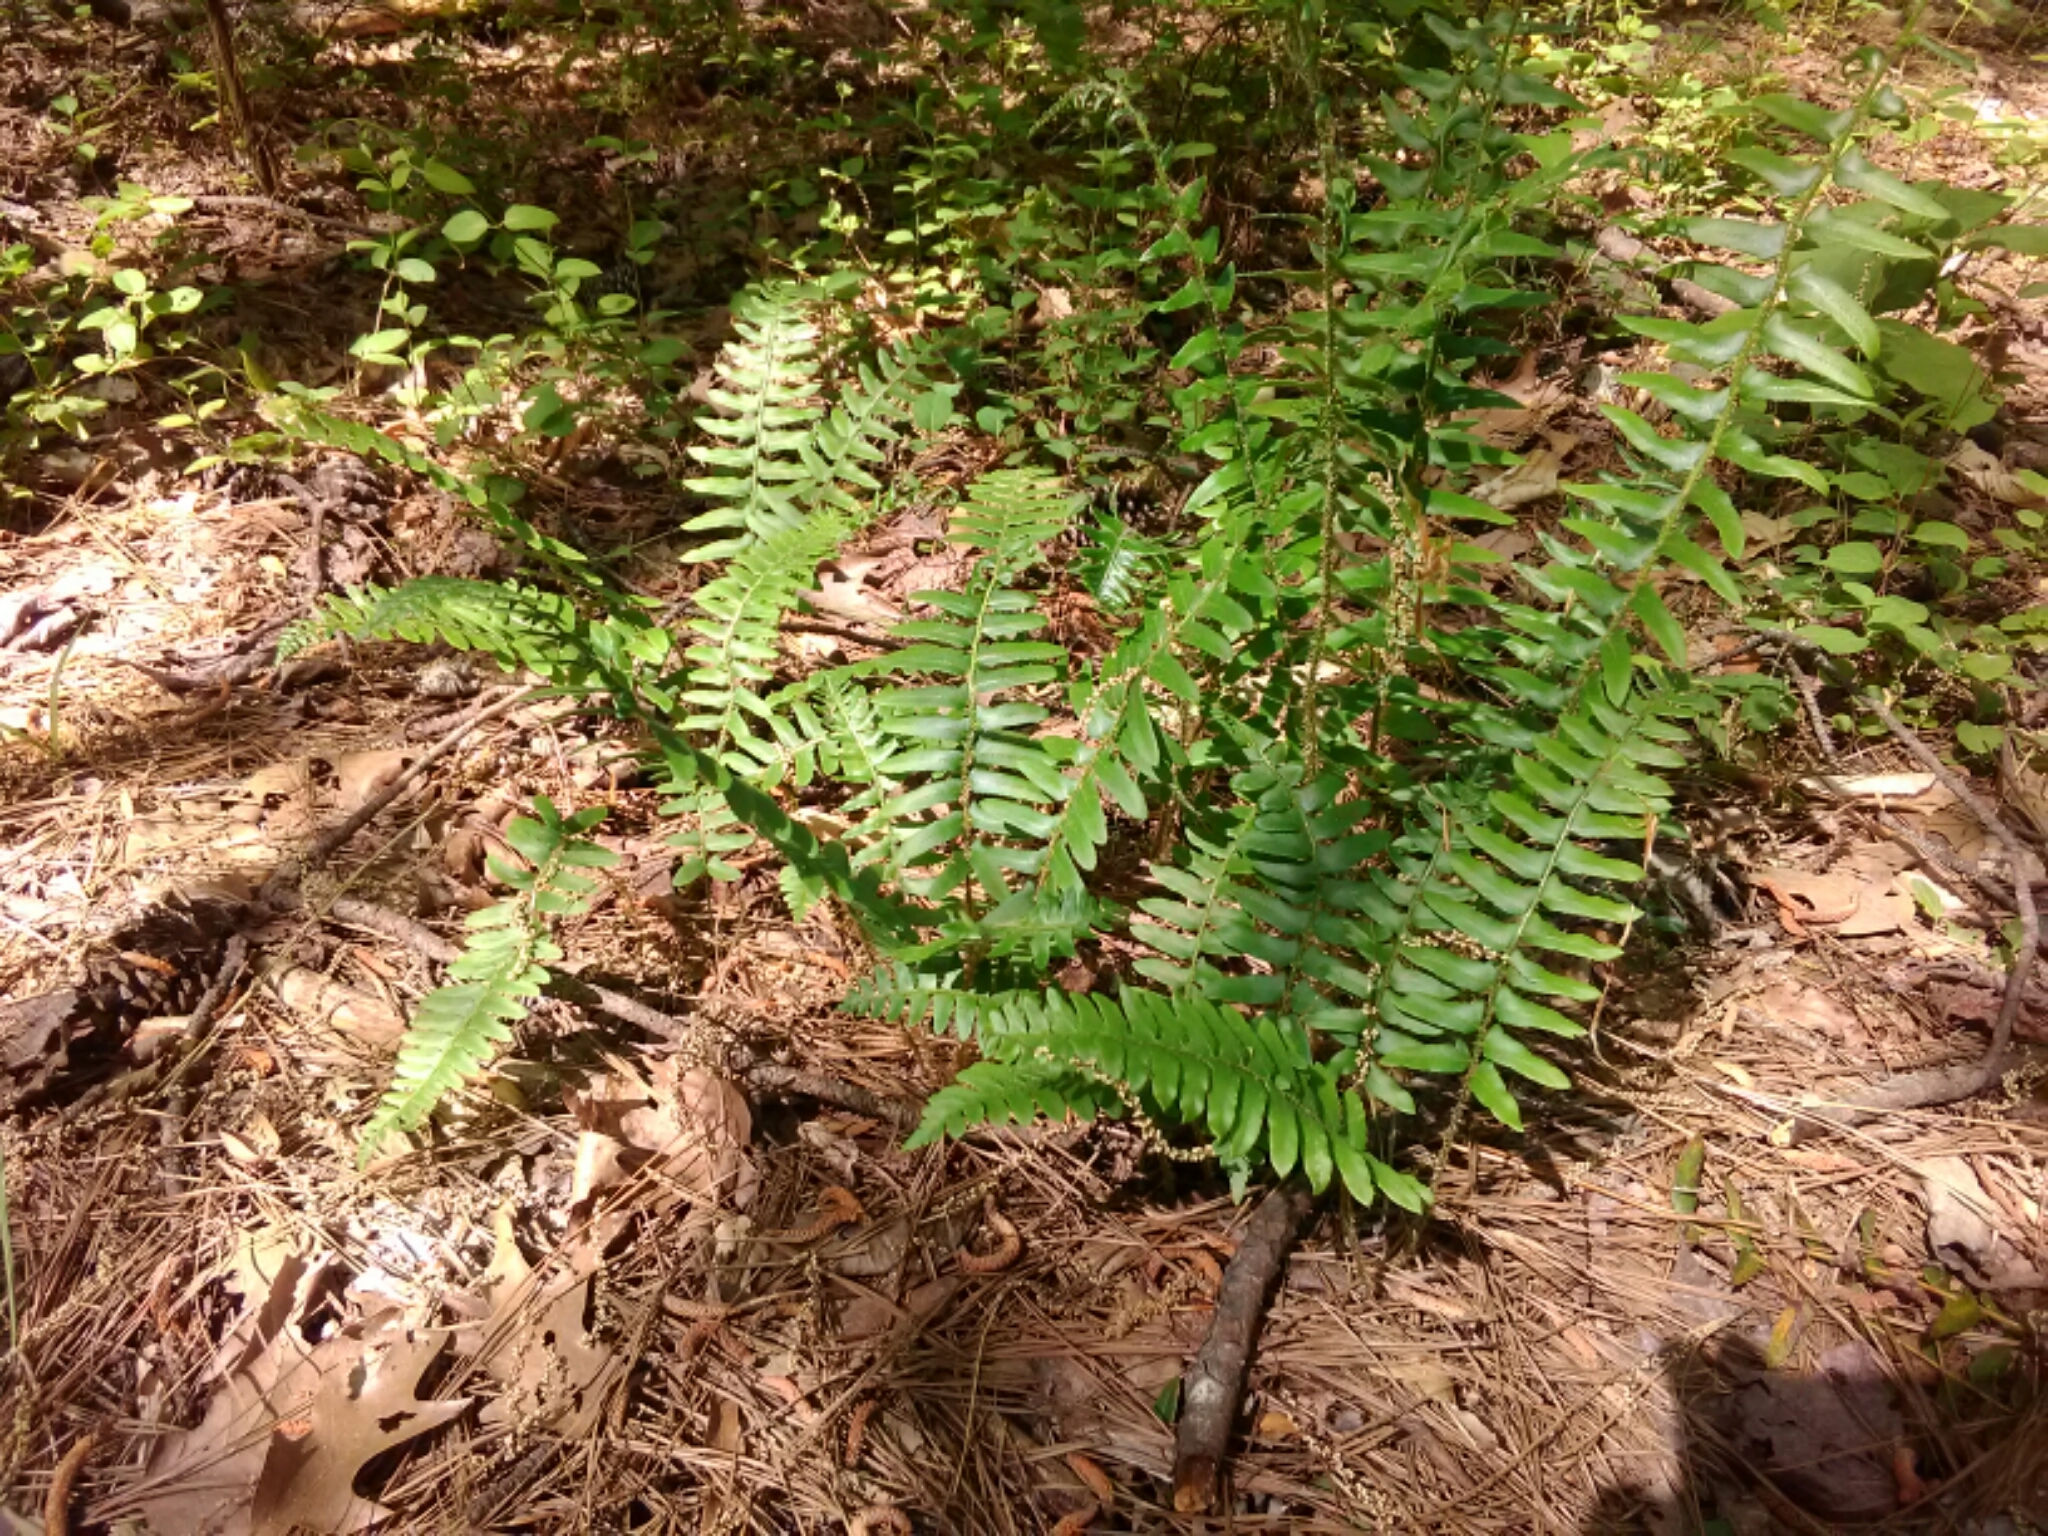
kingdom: Plantae
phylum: Tracheophyta
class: Polypodiopsida
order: Polypodiales
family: Dryopteridaceae
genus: Polystichum
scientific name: Polystichum acrostichoides
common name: Christmas fern
